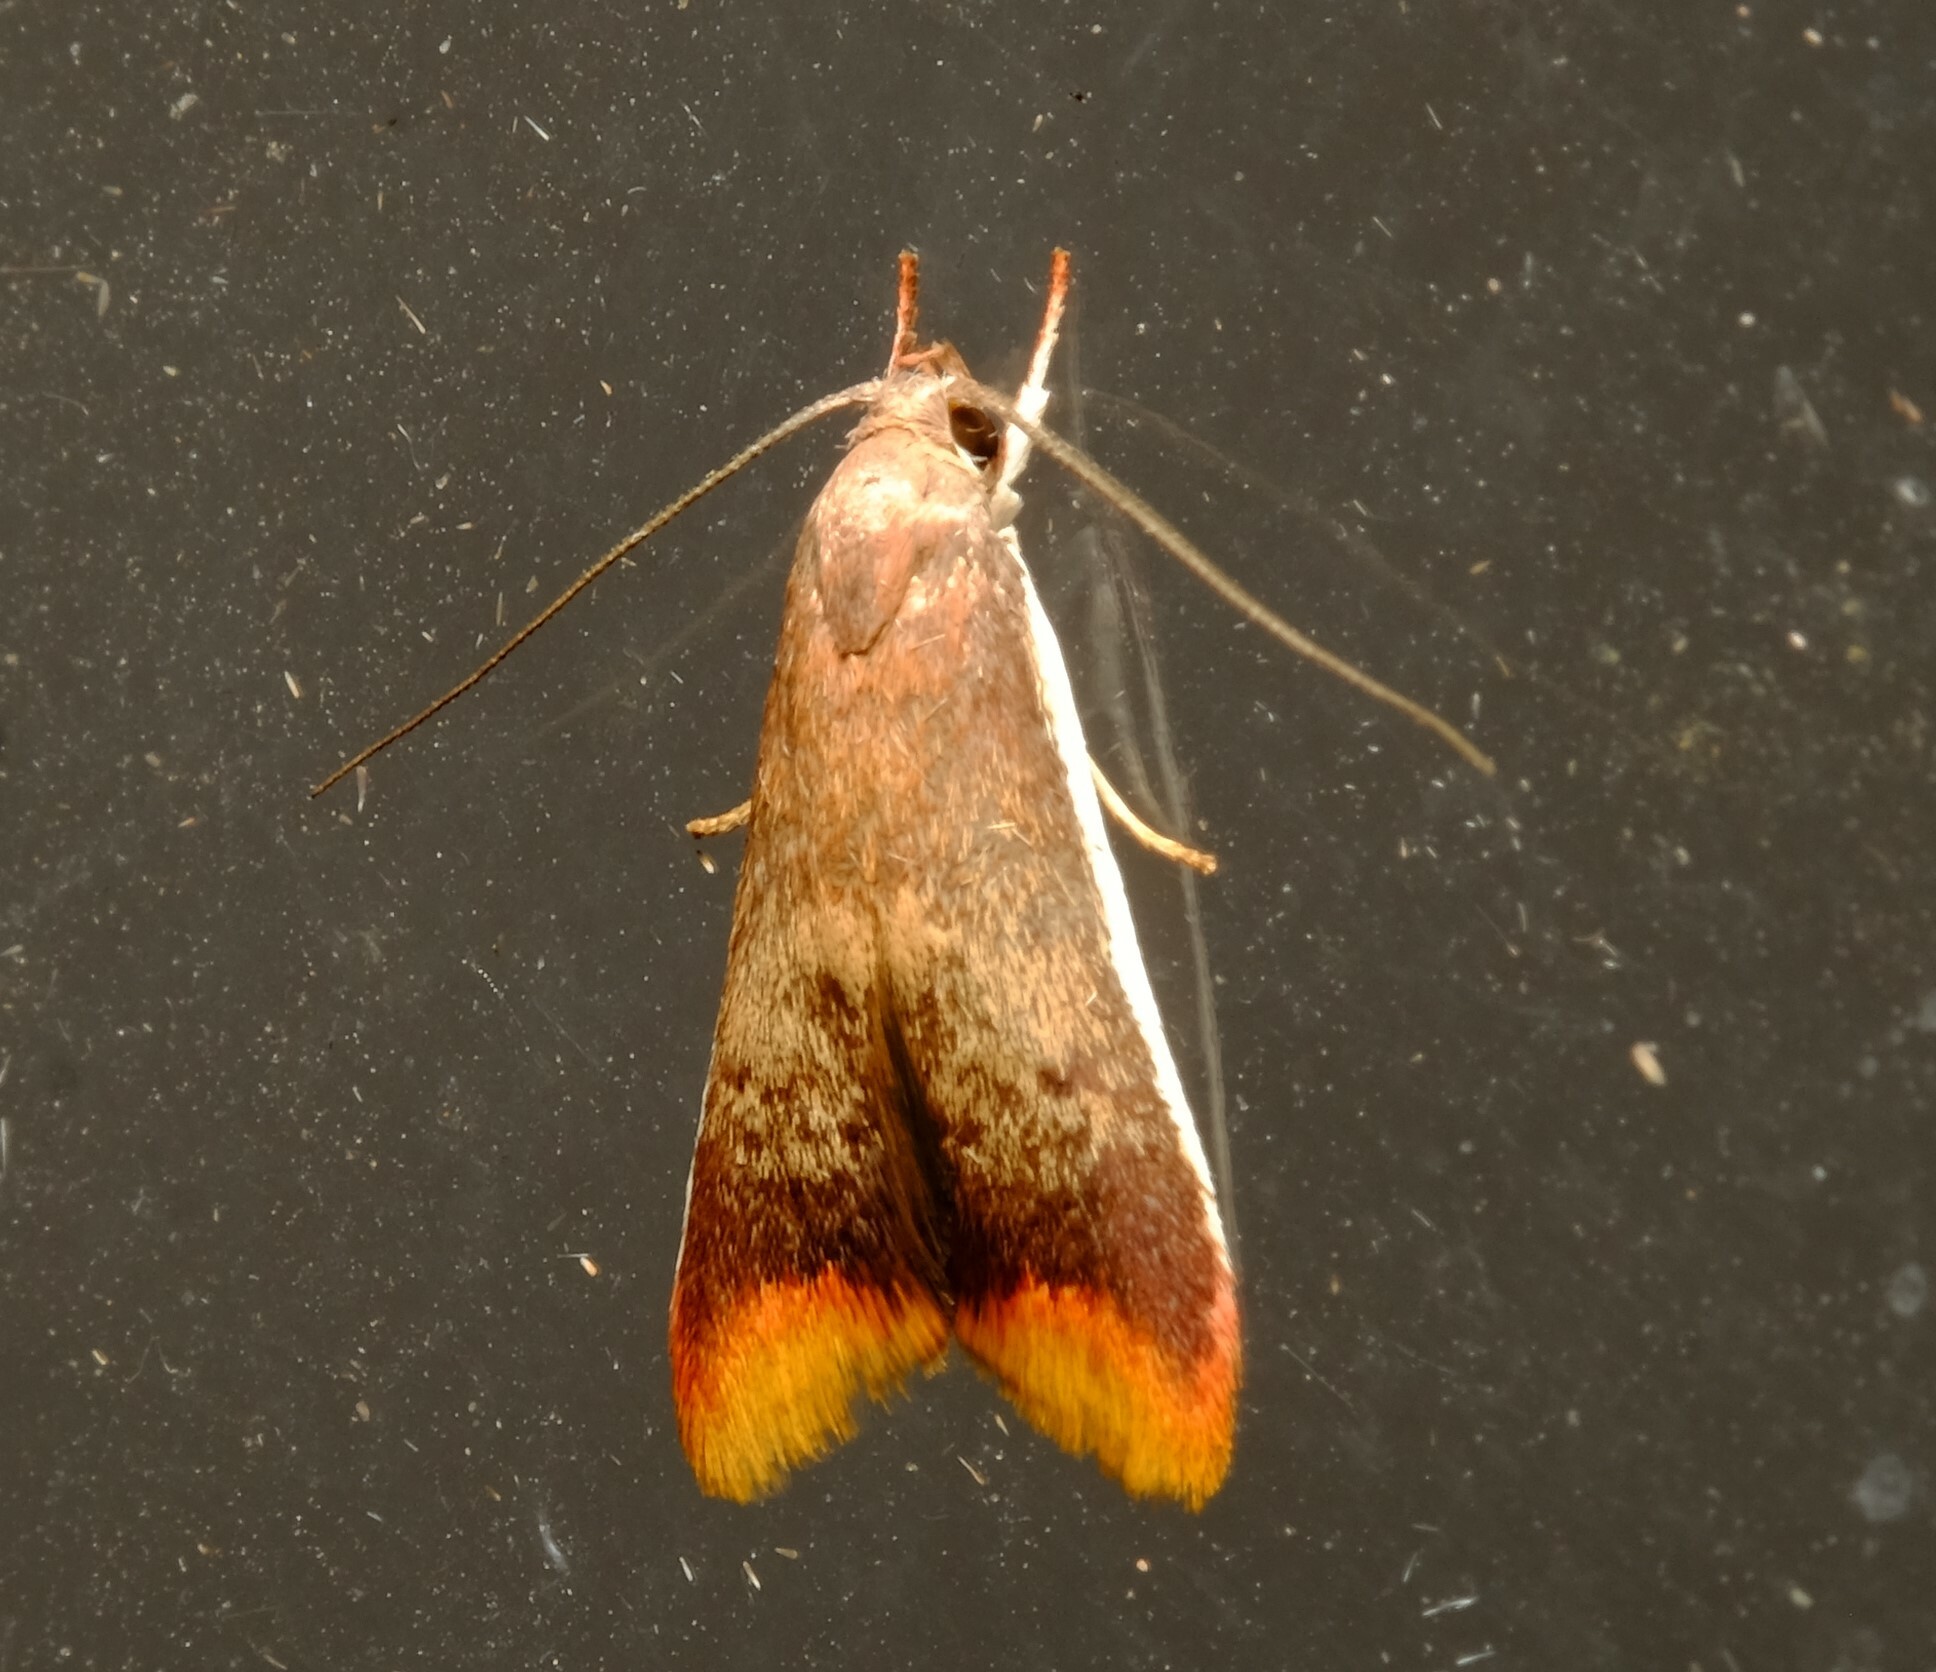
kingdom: Animalia
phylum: Arthropoda
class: Insecta
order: Lepidoptera
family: Oecophoridae
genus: Hemibela
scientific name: Hemibela callista
